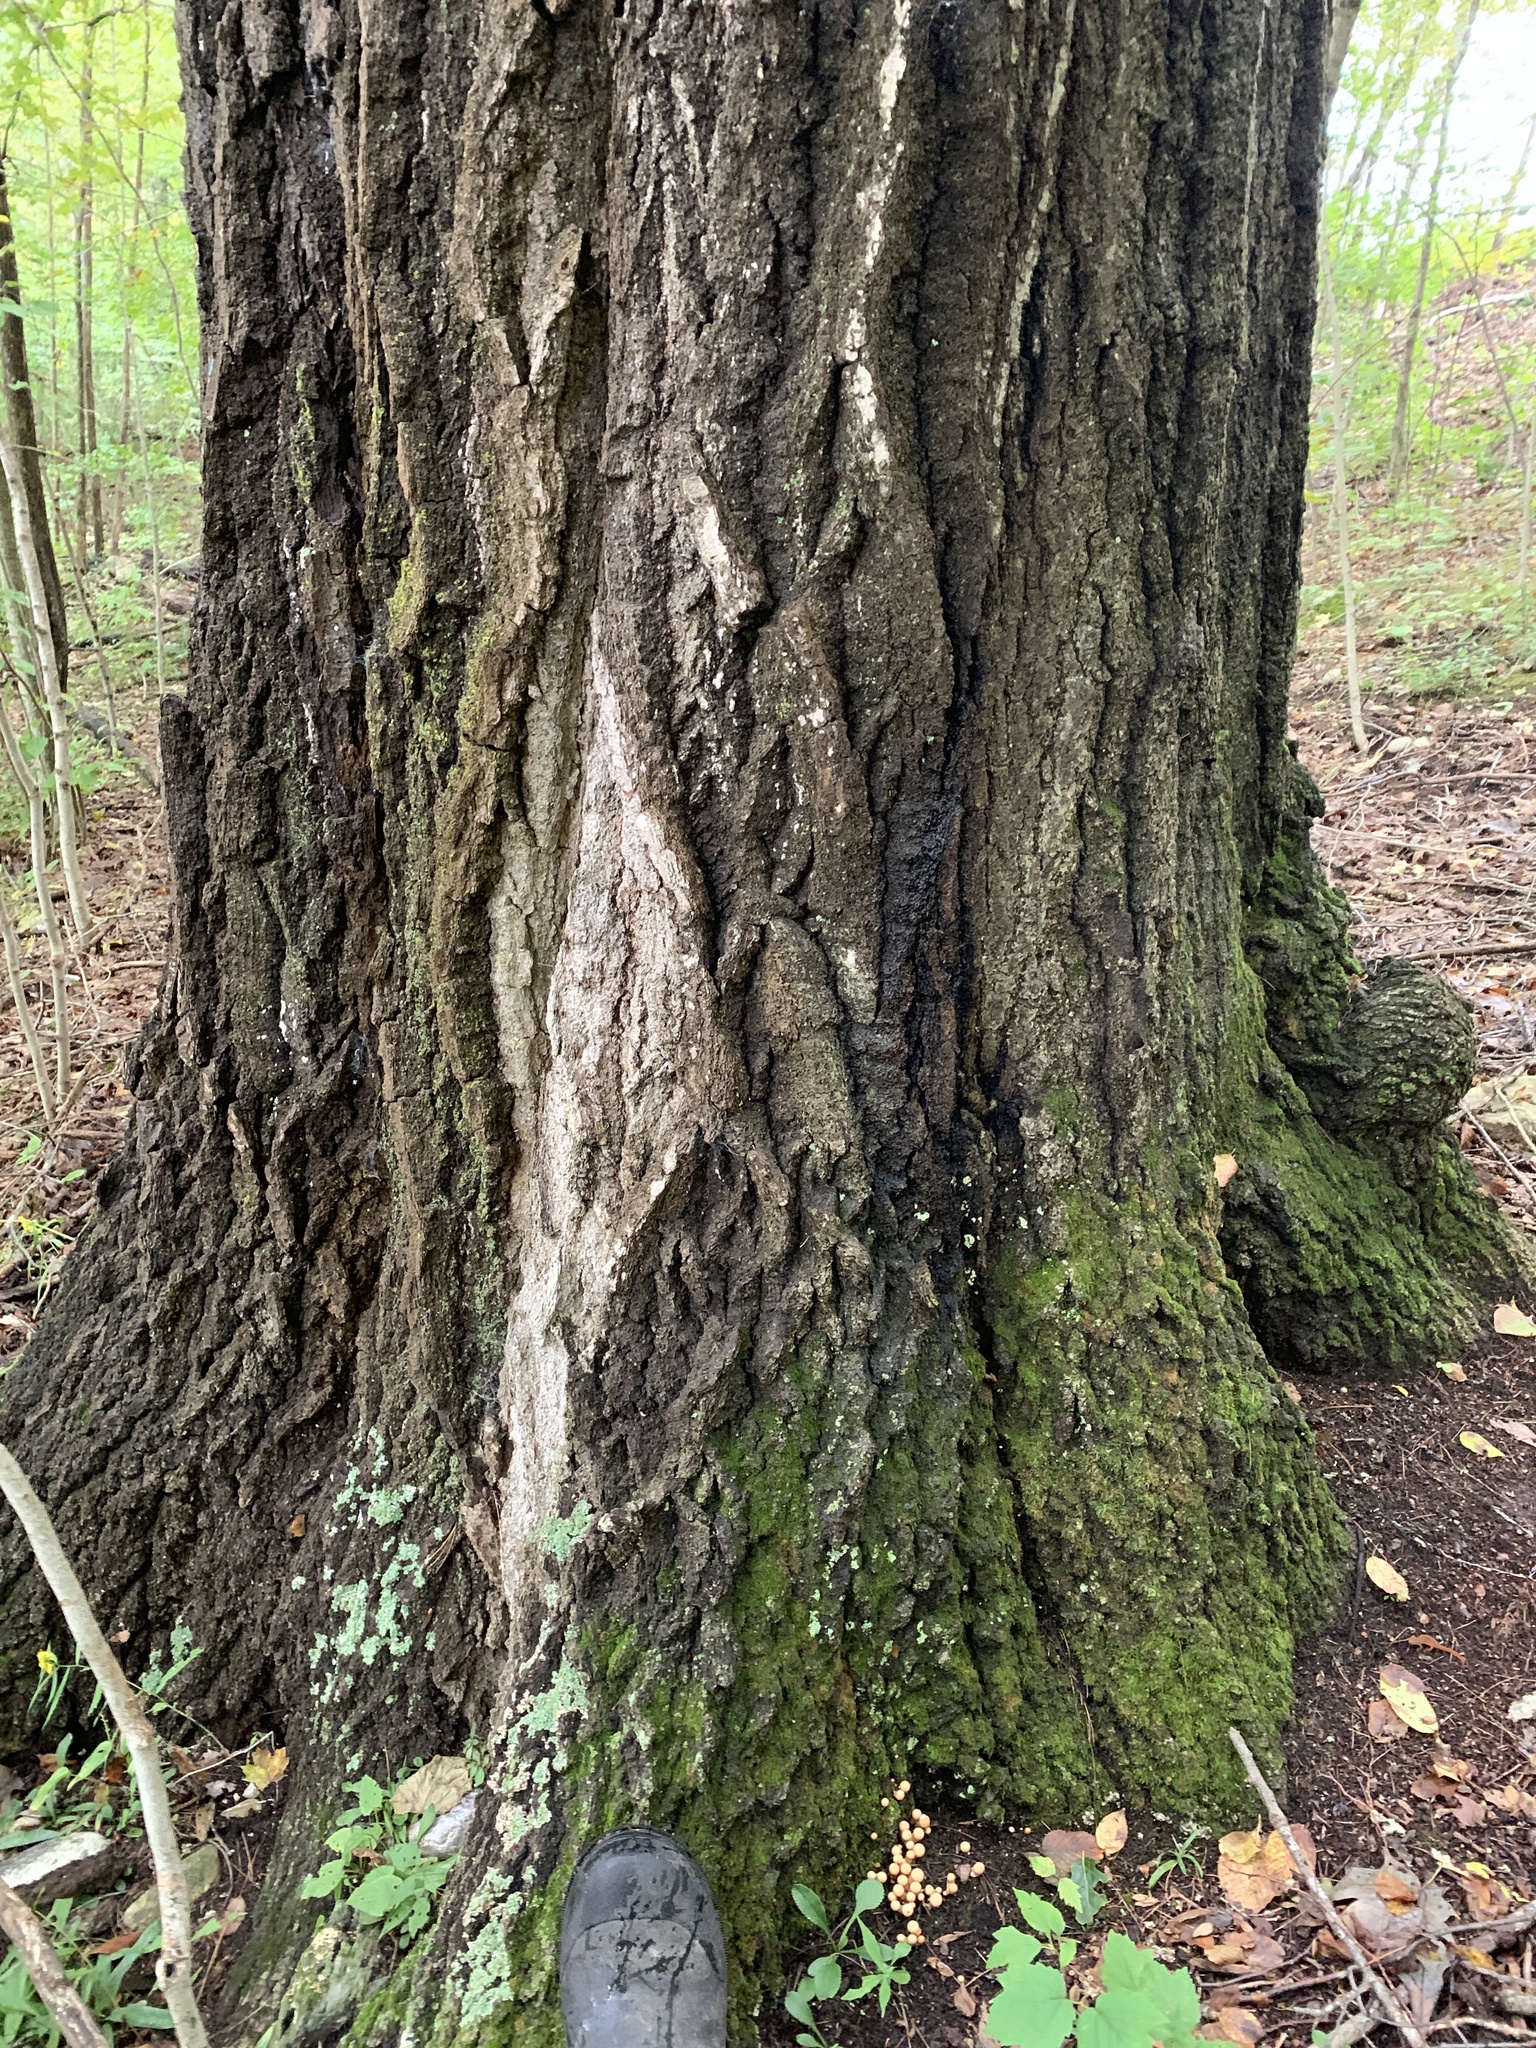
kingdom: Plantae
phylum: Tracheophyta
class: Magnoliopsida
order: Fagales
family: Fagaceae
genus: Quercus
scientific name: Quercus rubra
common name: Red oak
